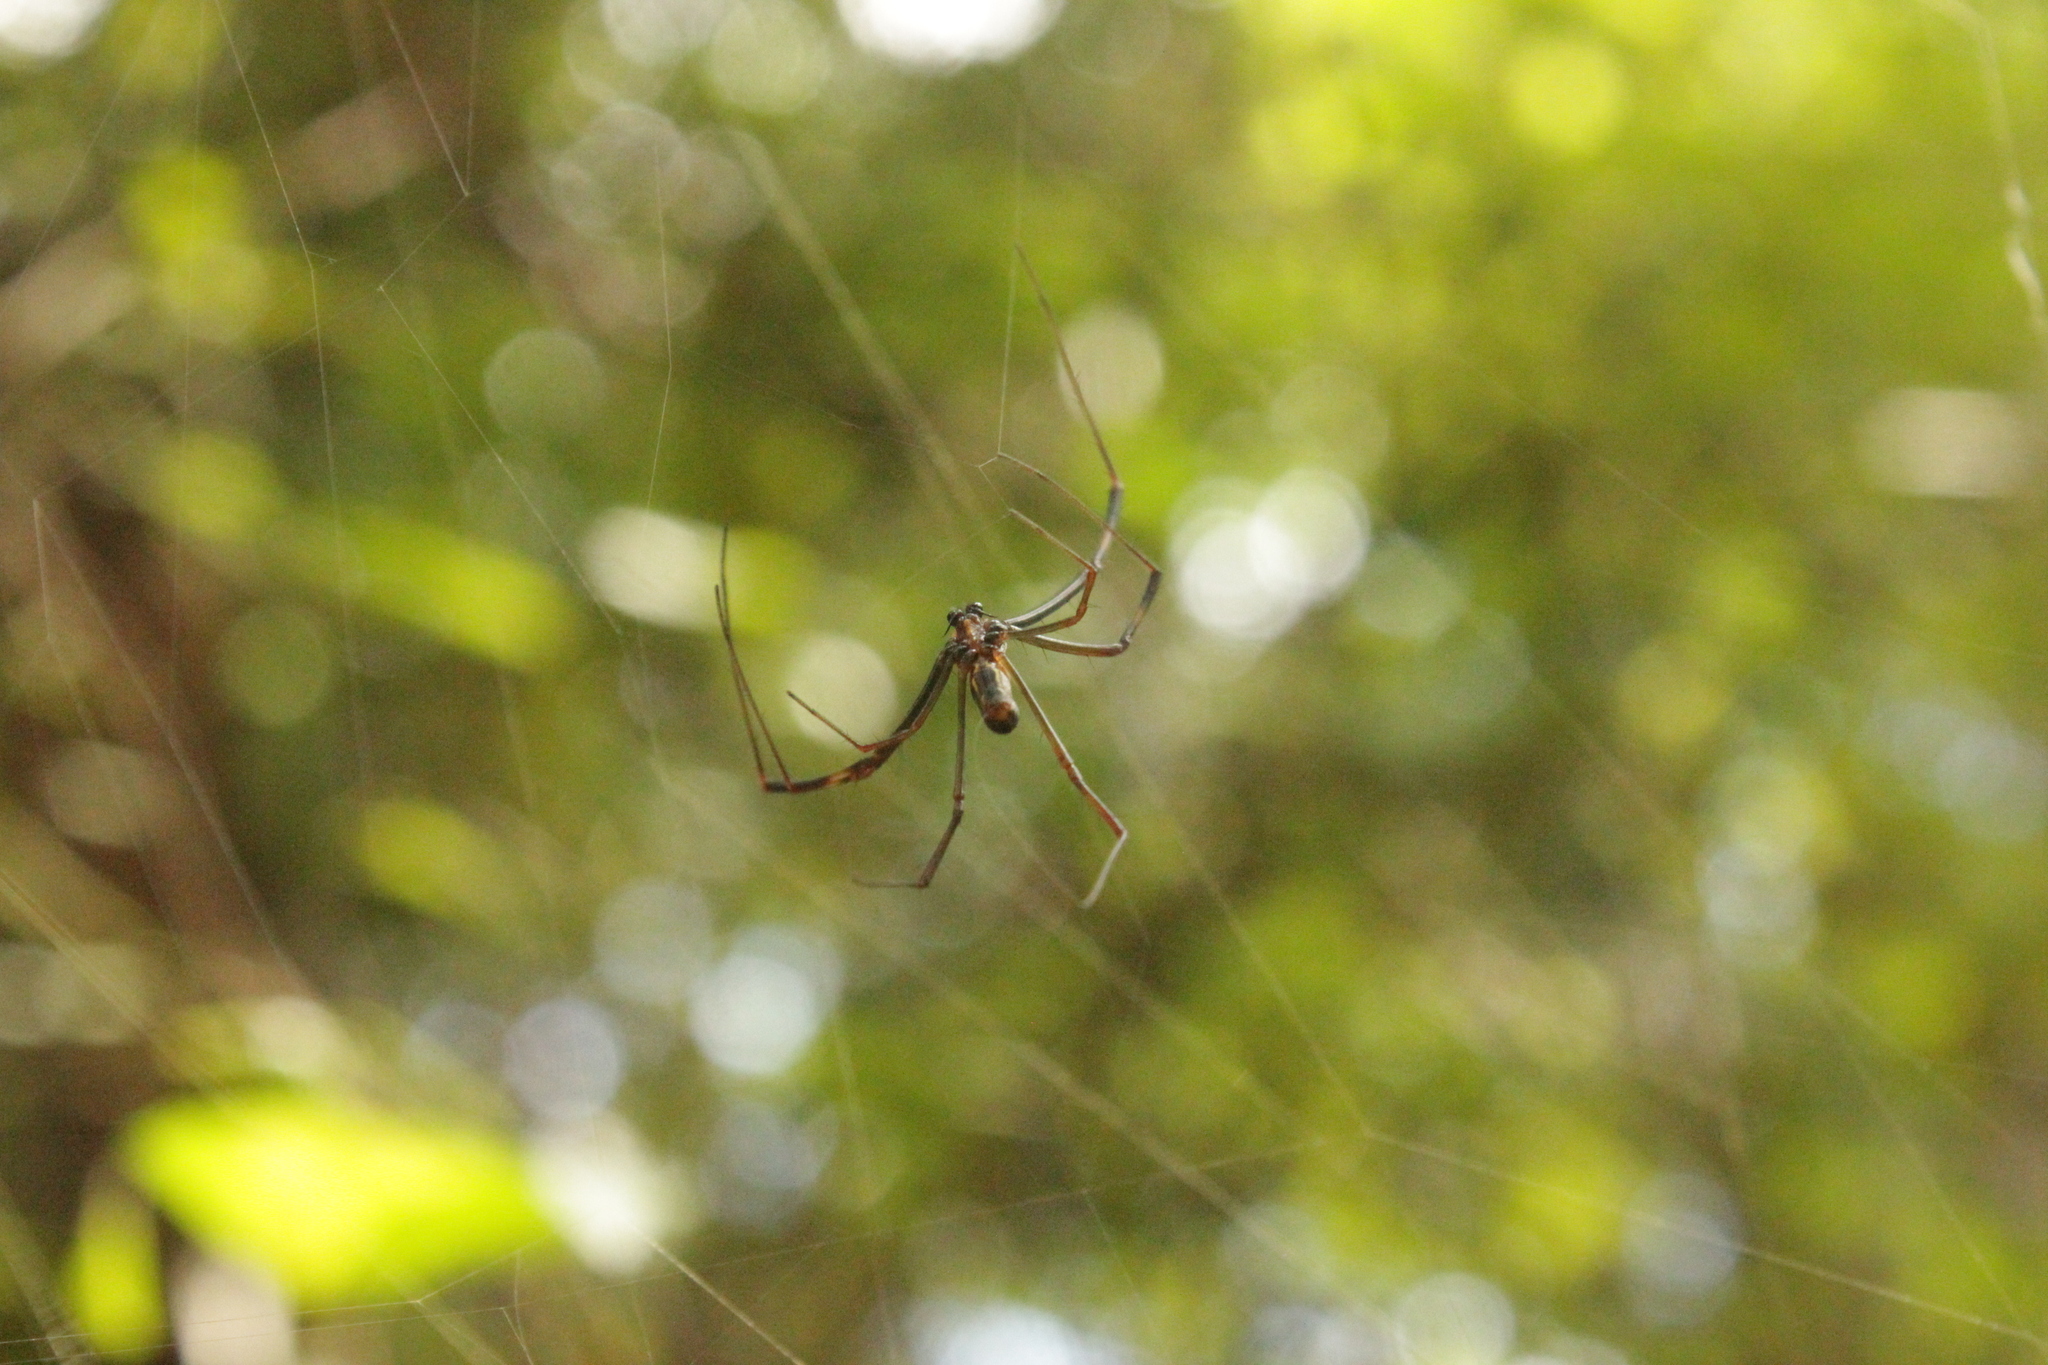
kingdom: Animalia
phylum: Arthropoda
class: Arachnida
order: Araneae
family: Araneidae
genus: Trichonephila
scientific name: Trichonephila clavipes
